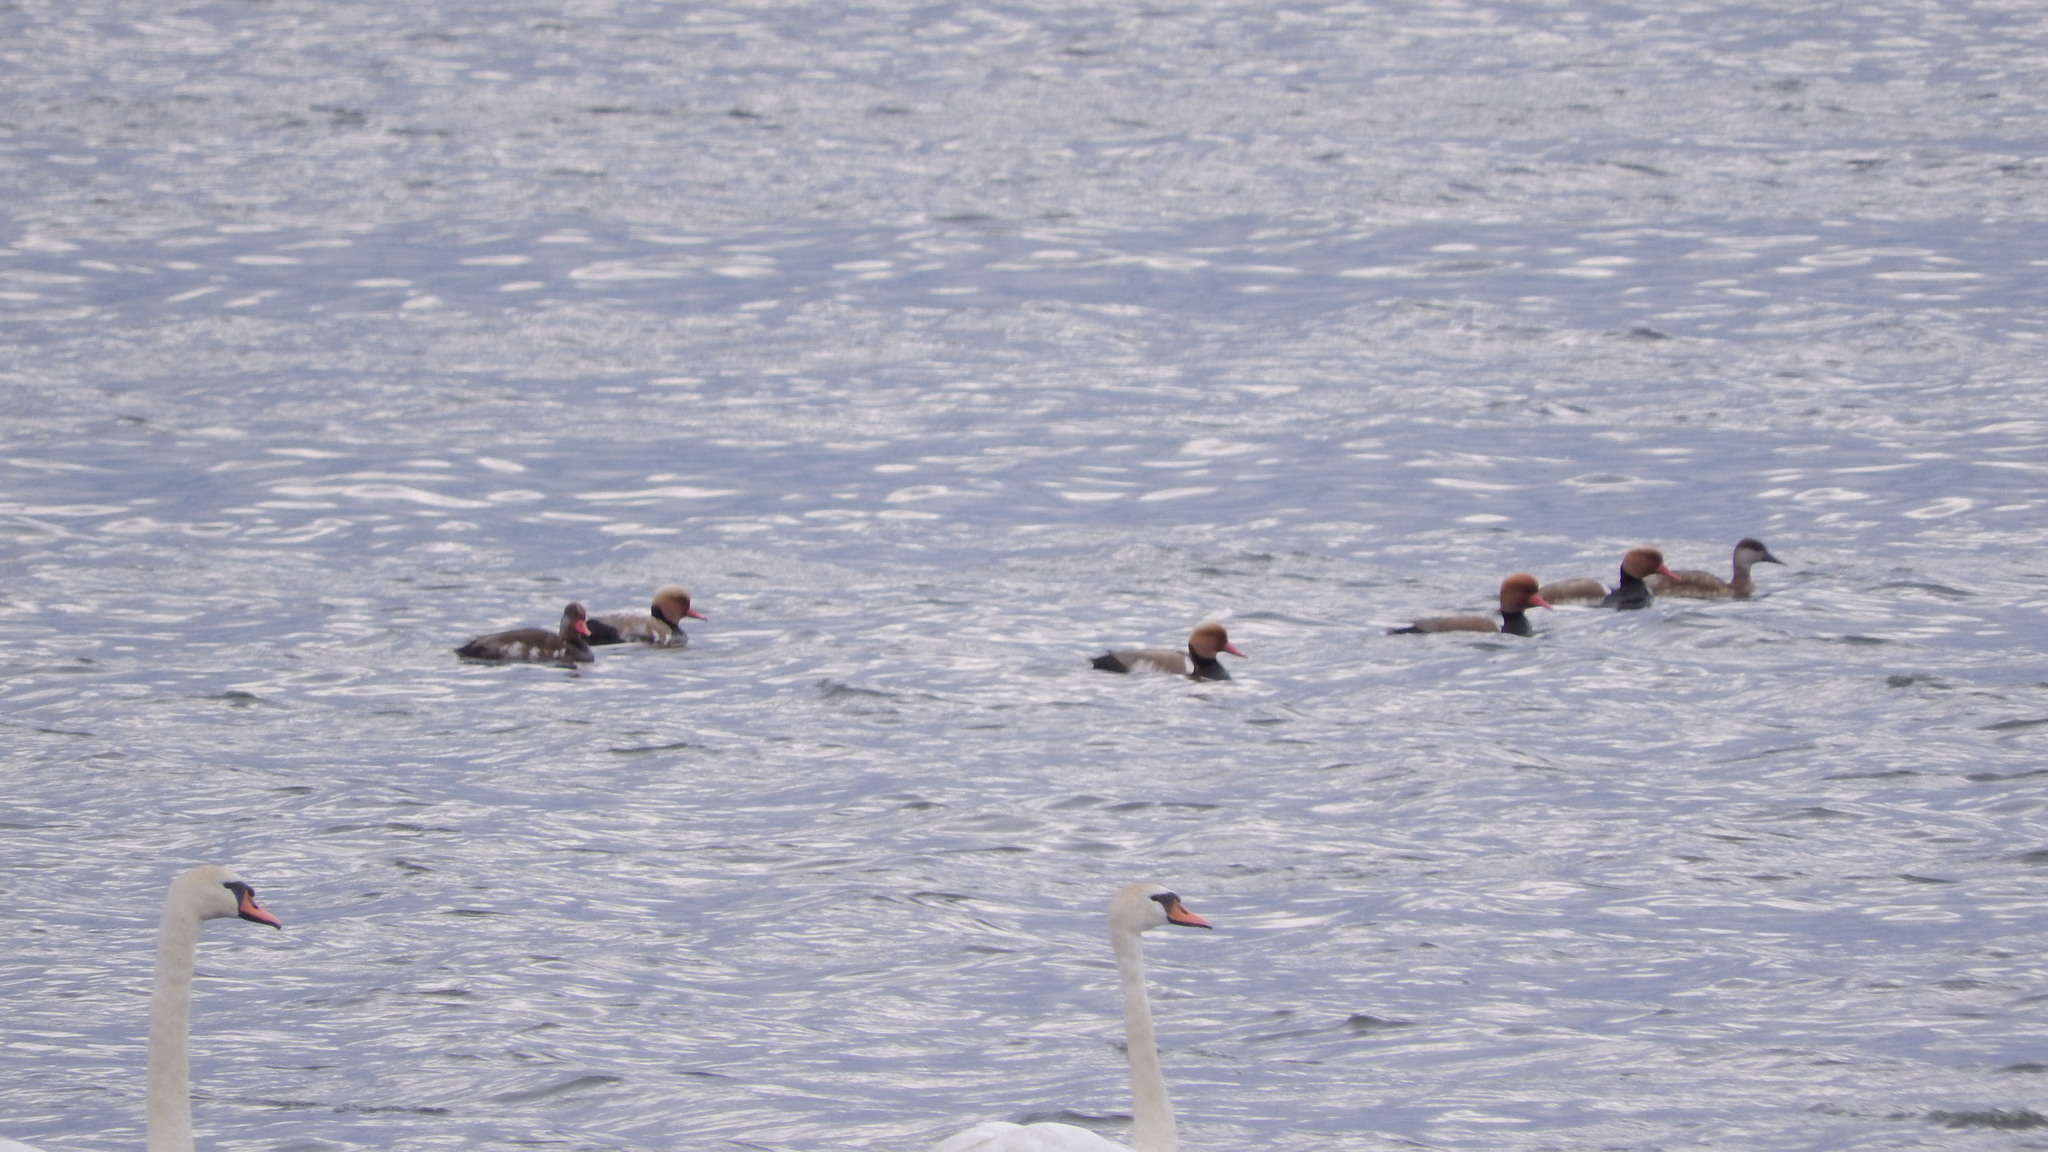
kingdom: Animalia
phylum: Chordata
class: Aves
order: Anseriformes
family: Anatidae
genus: Netta
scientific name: Netta rufina
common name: Red-crested pochard
